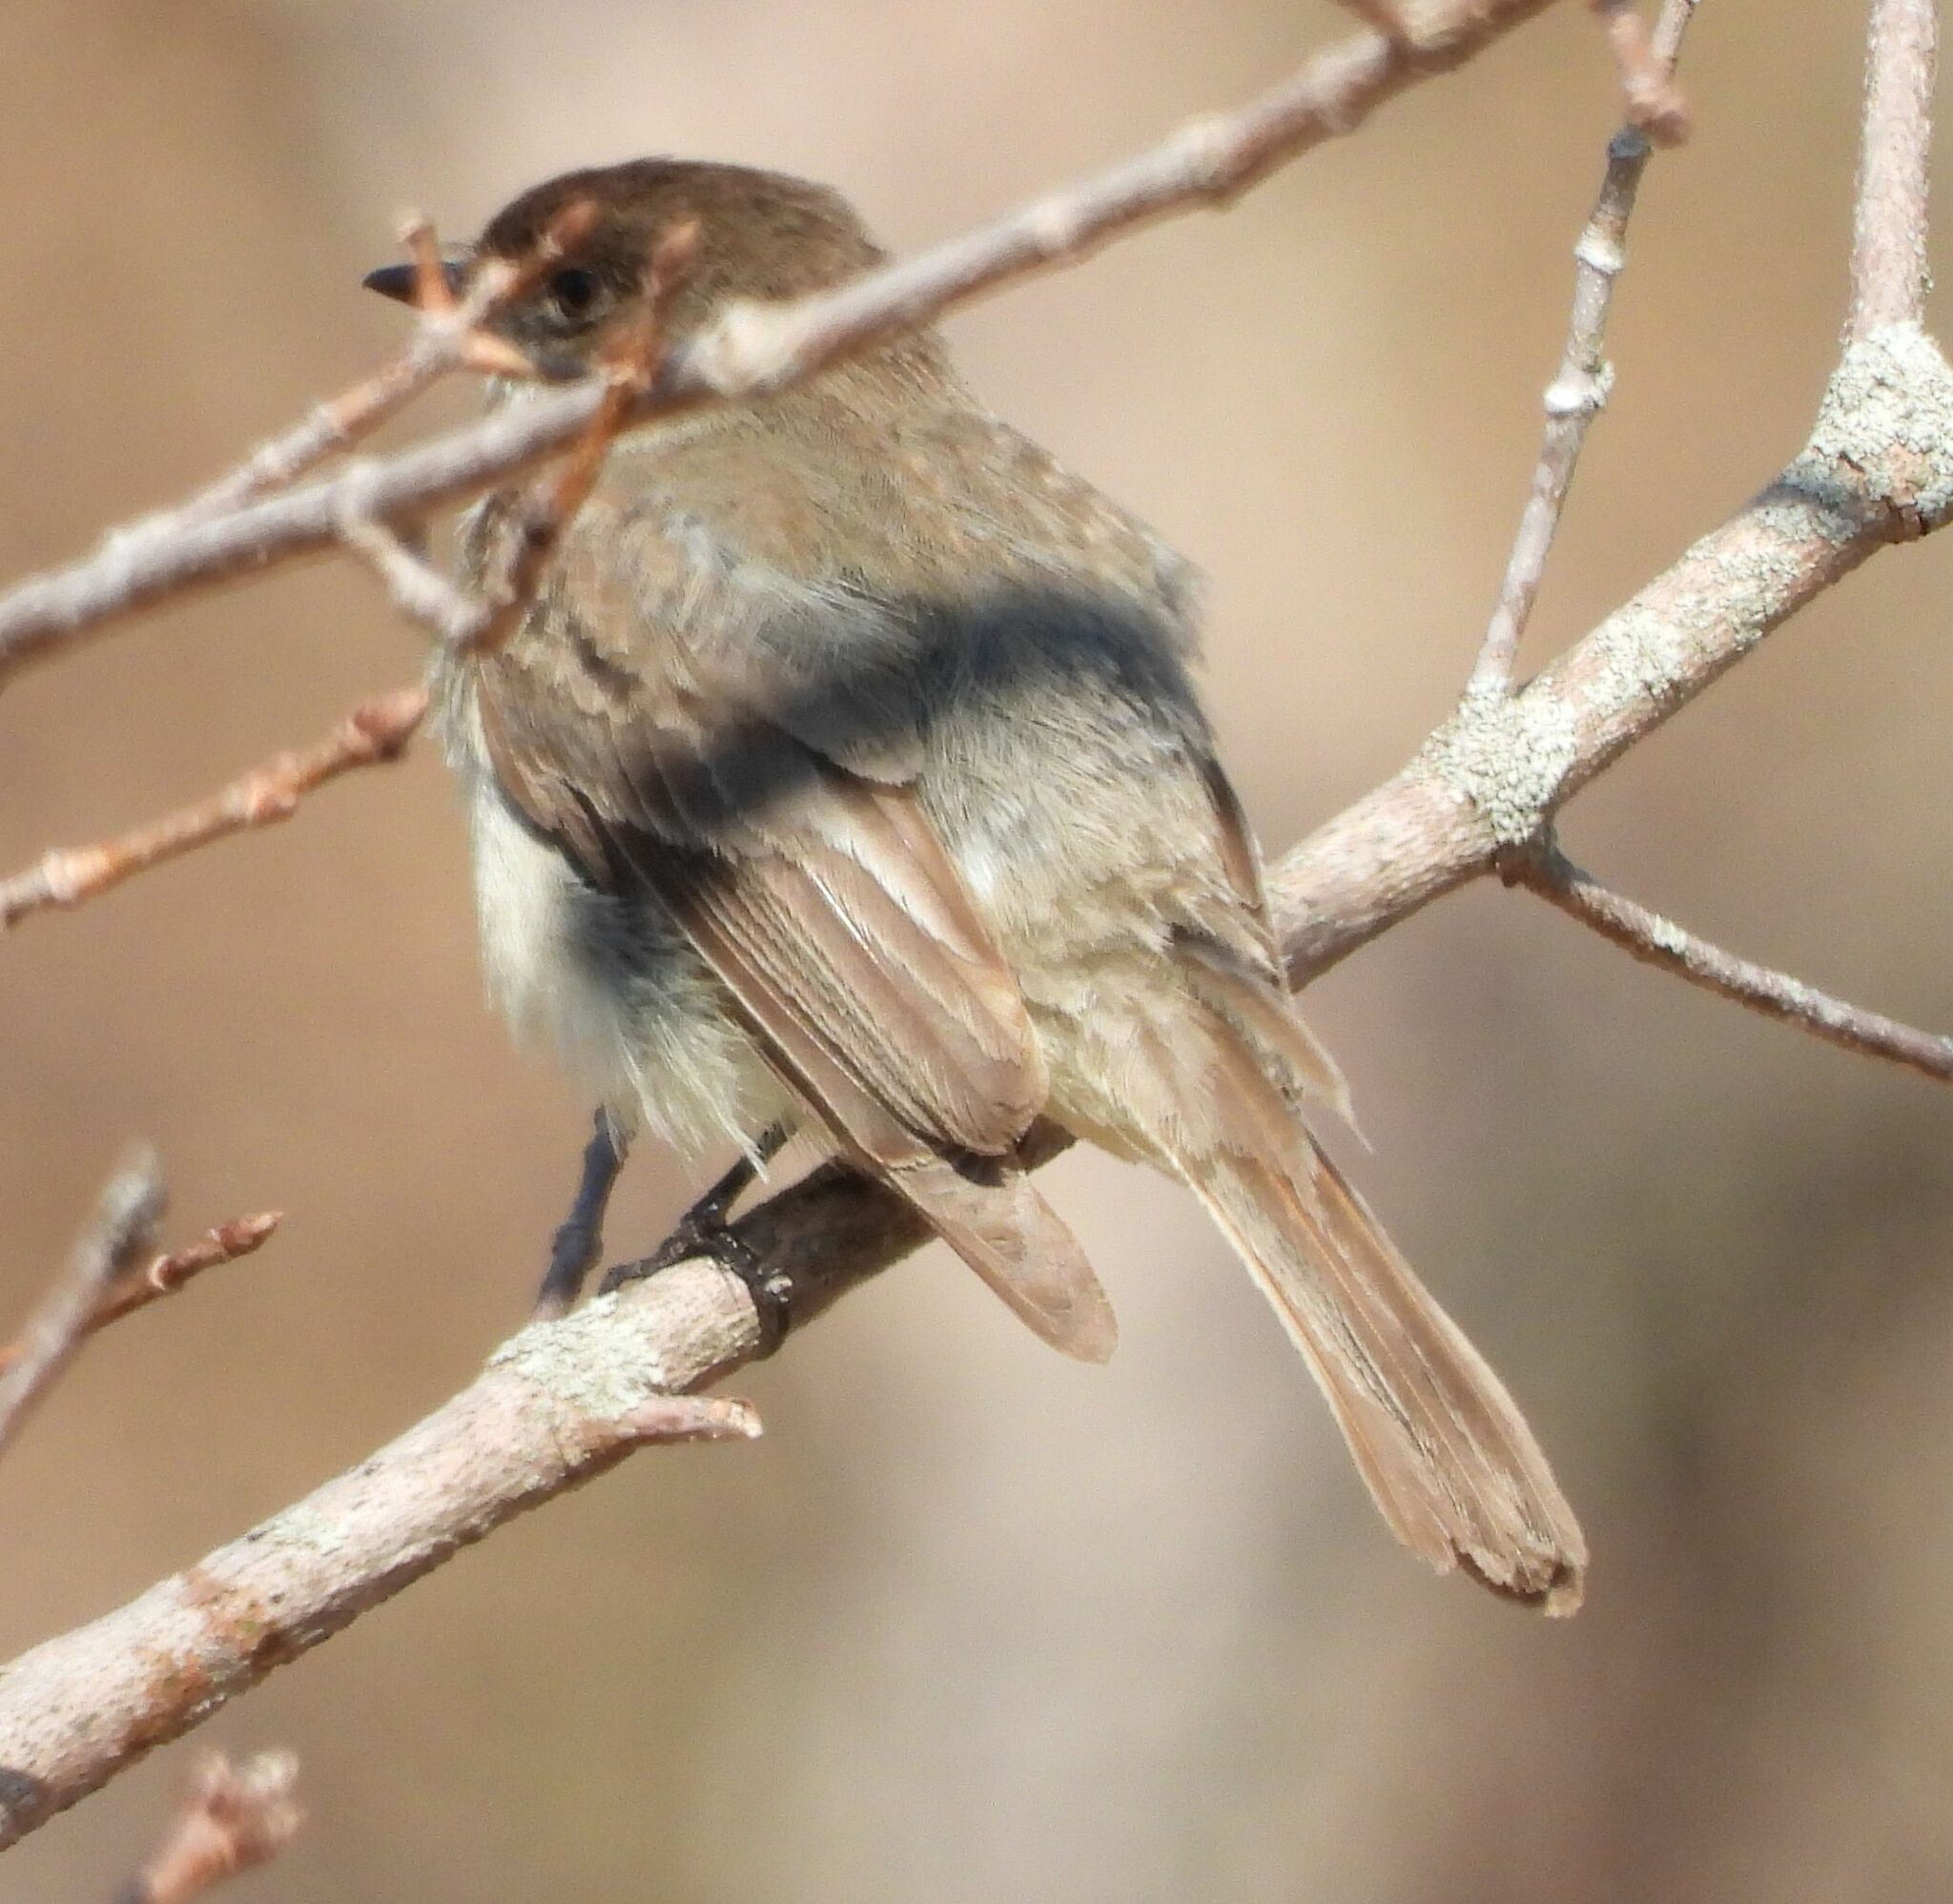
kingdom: Animalia
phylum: Chordata
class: Aves
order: Passeriformes
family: Tyrannidae
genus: Sayornis
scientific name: Sayornis phoebe
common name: Eastern phoebe
